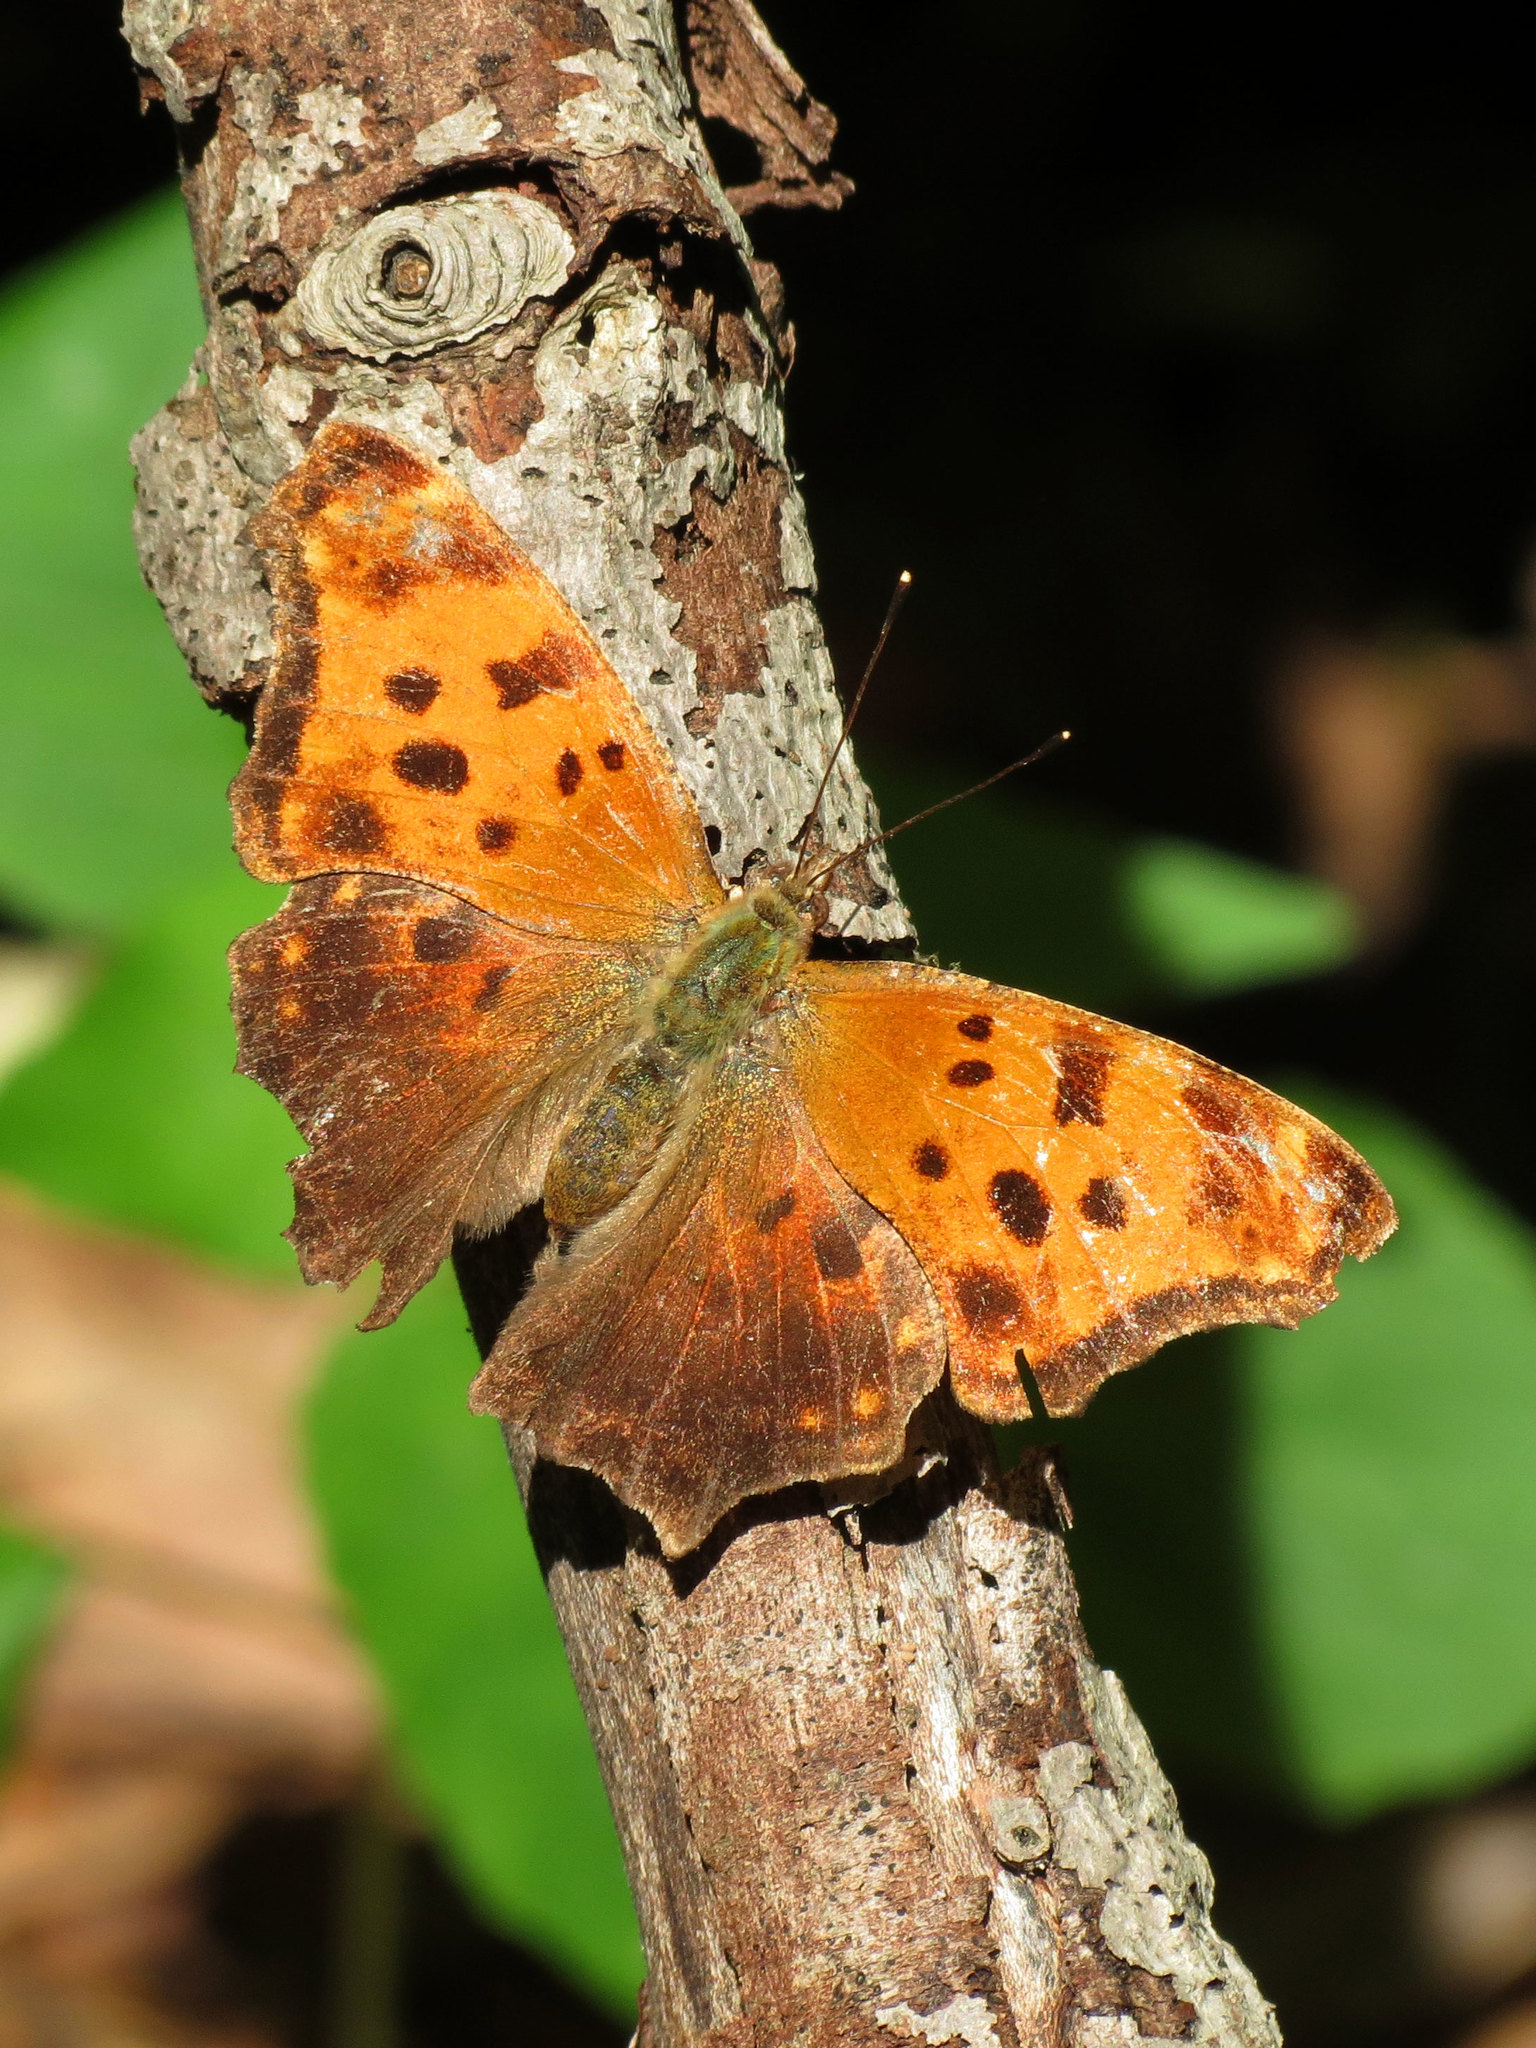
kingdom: Animalia
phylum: Arthropoda
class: Insecta
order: Lepidoptera
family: Nymphalidae
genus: Polygonia
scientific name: Polygonia comma
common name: Eastern comma
